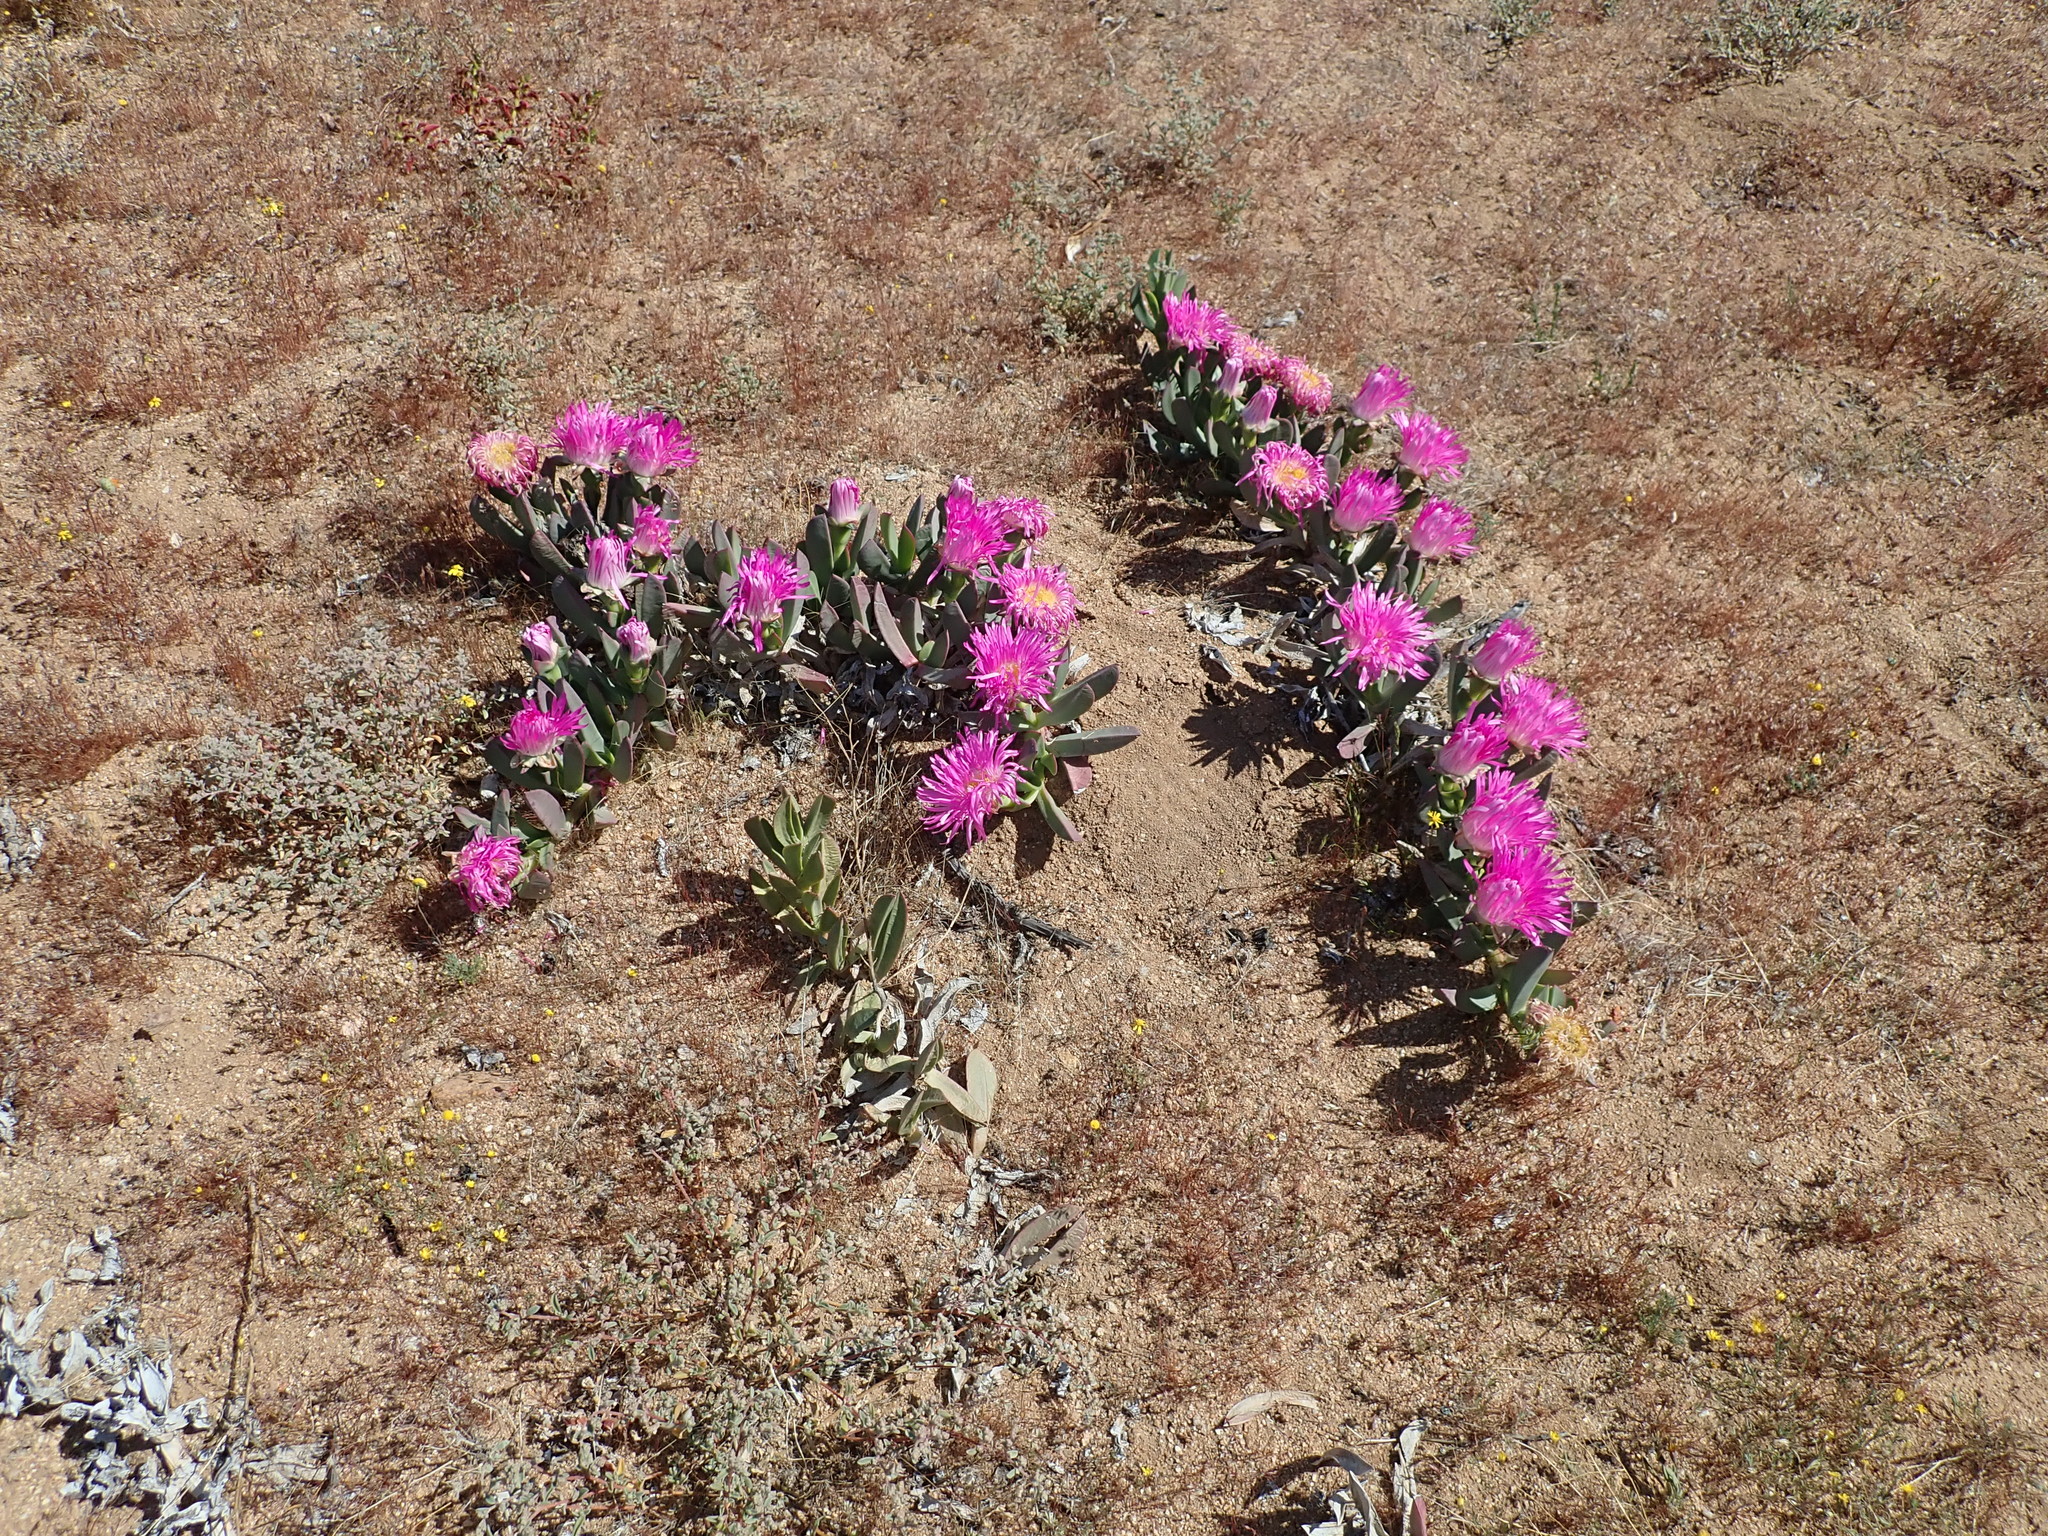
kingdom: Plantae
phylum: Tracheophyta
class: Magnoliopsida
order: Caryophyllales
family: Aizoaceae
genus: Carpobrotus
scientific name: Carpobrotus quadrifidus
